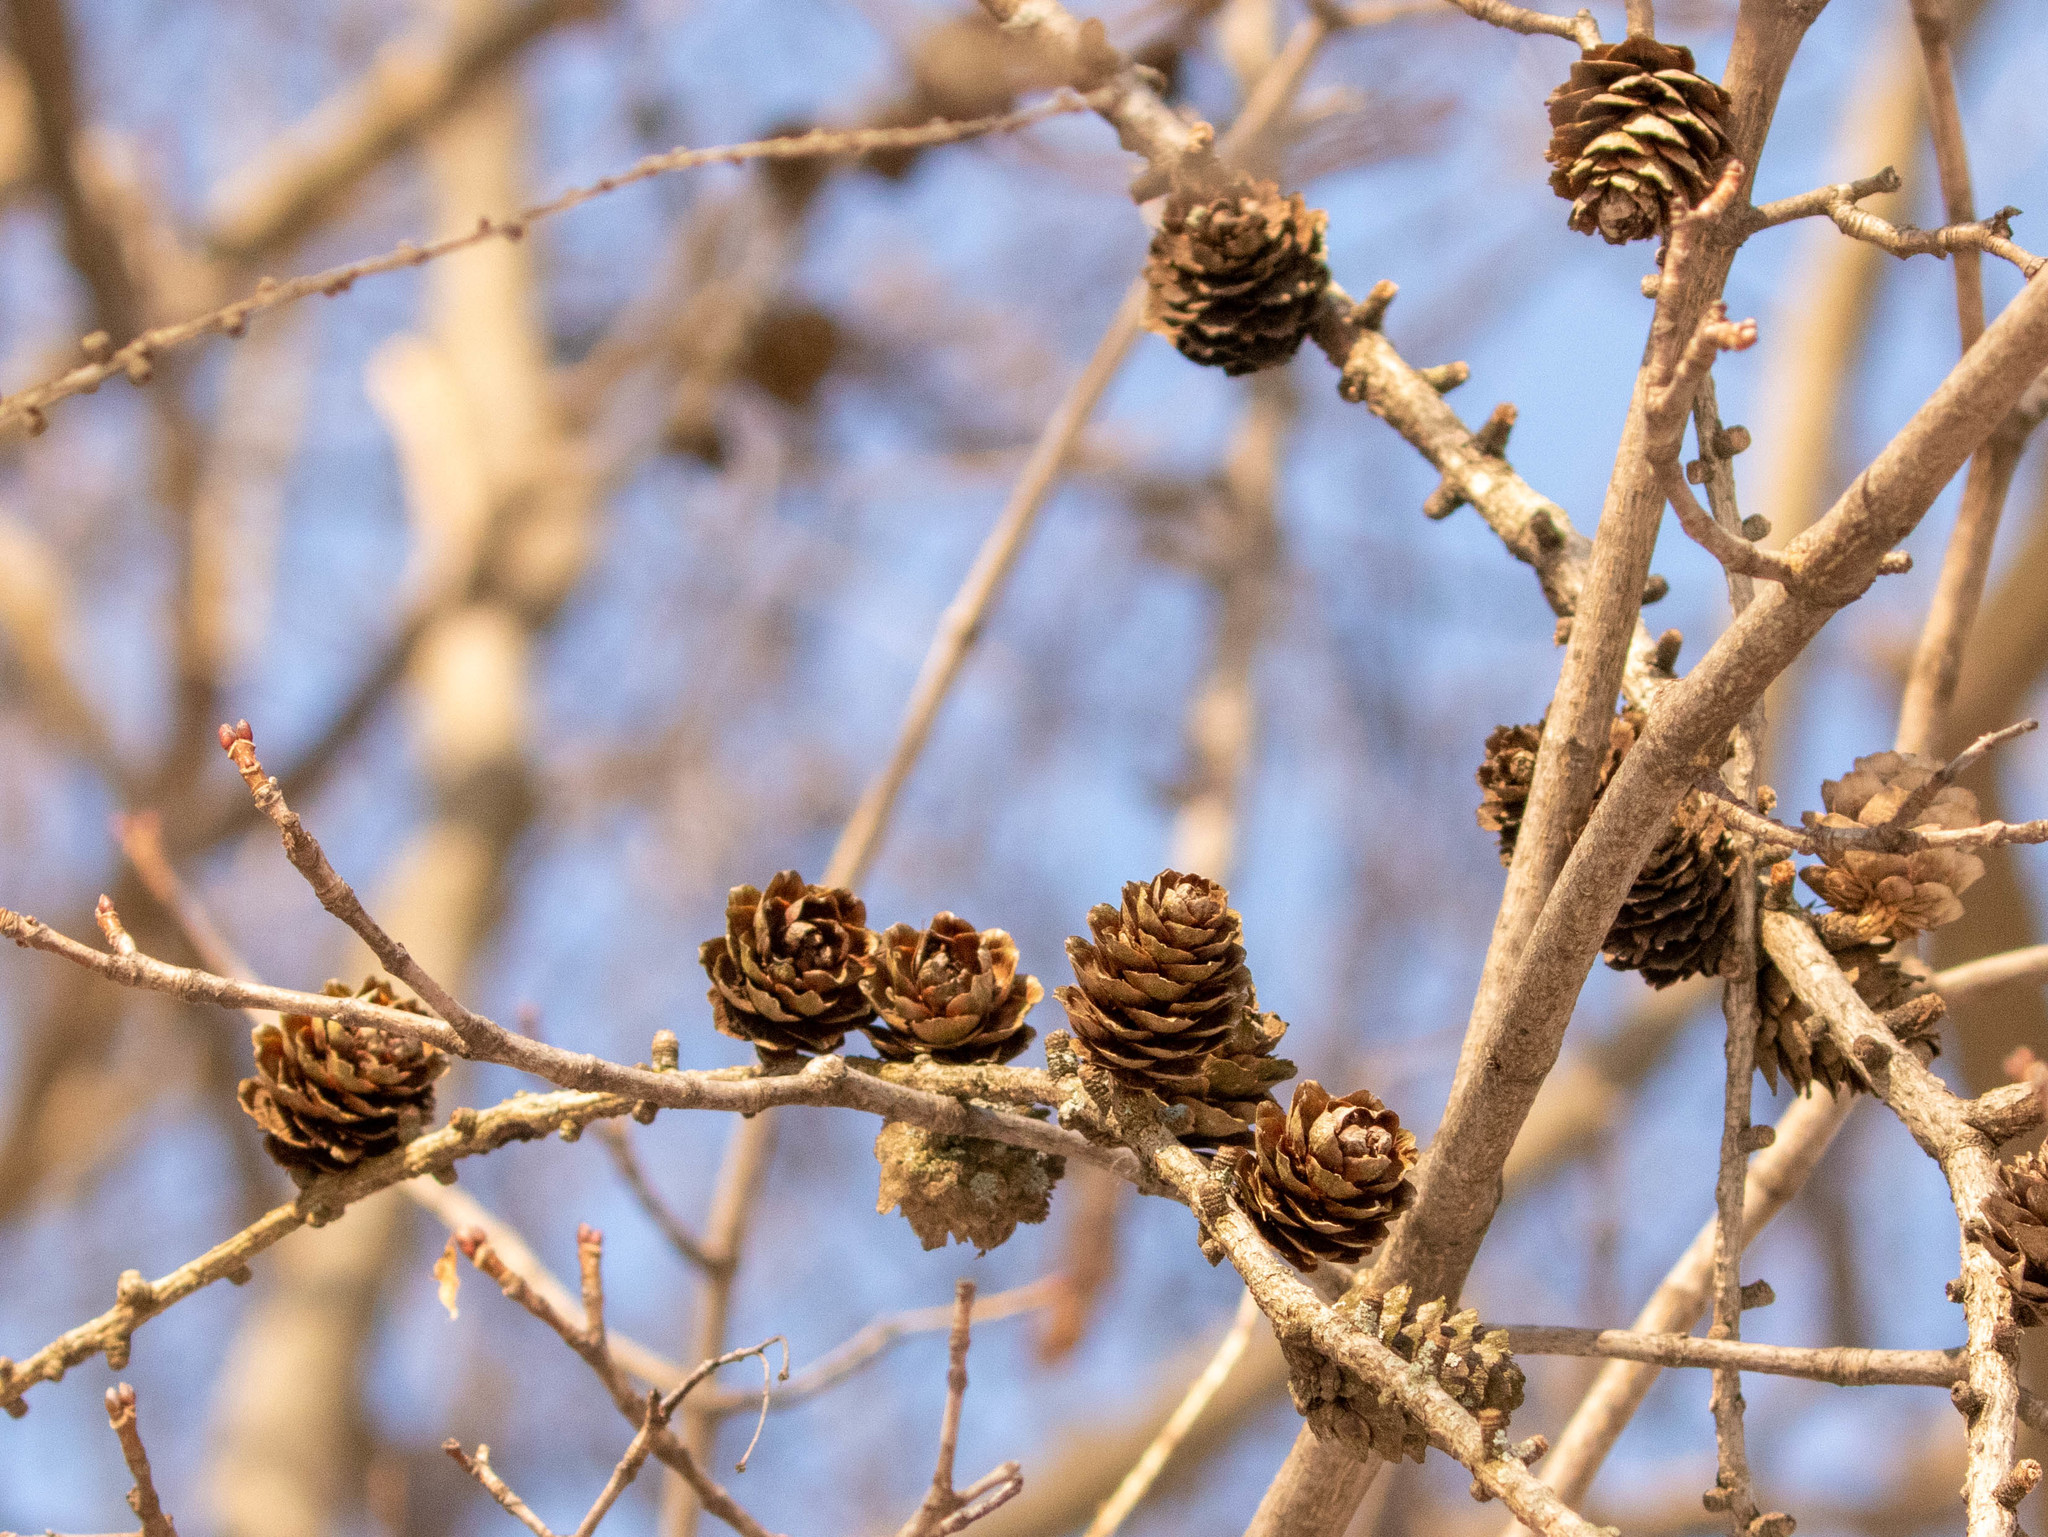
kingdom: Plantae
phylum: Tracheophyta
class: Pinopsida
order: Pinales
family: Pinaceae
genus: Larix
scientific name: Larix decidua
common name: European larch
